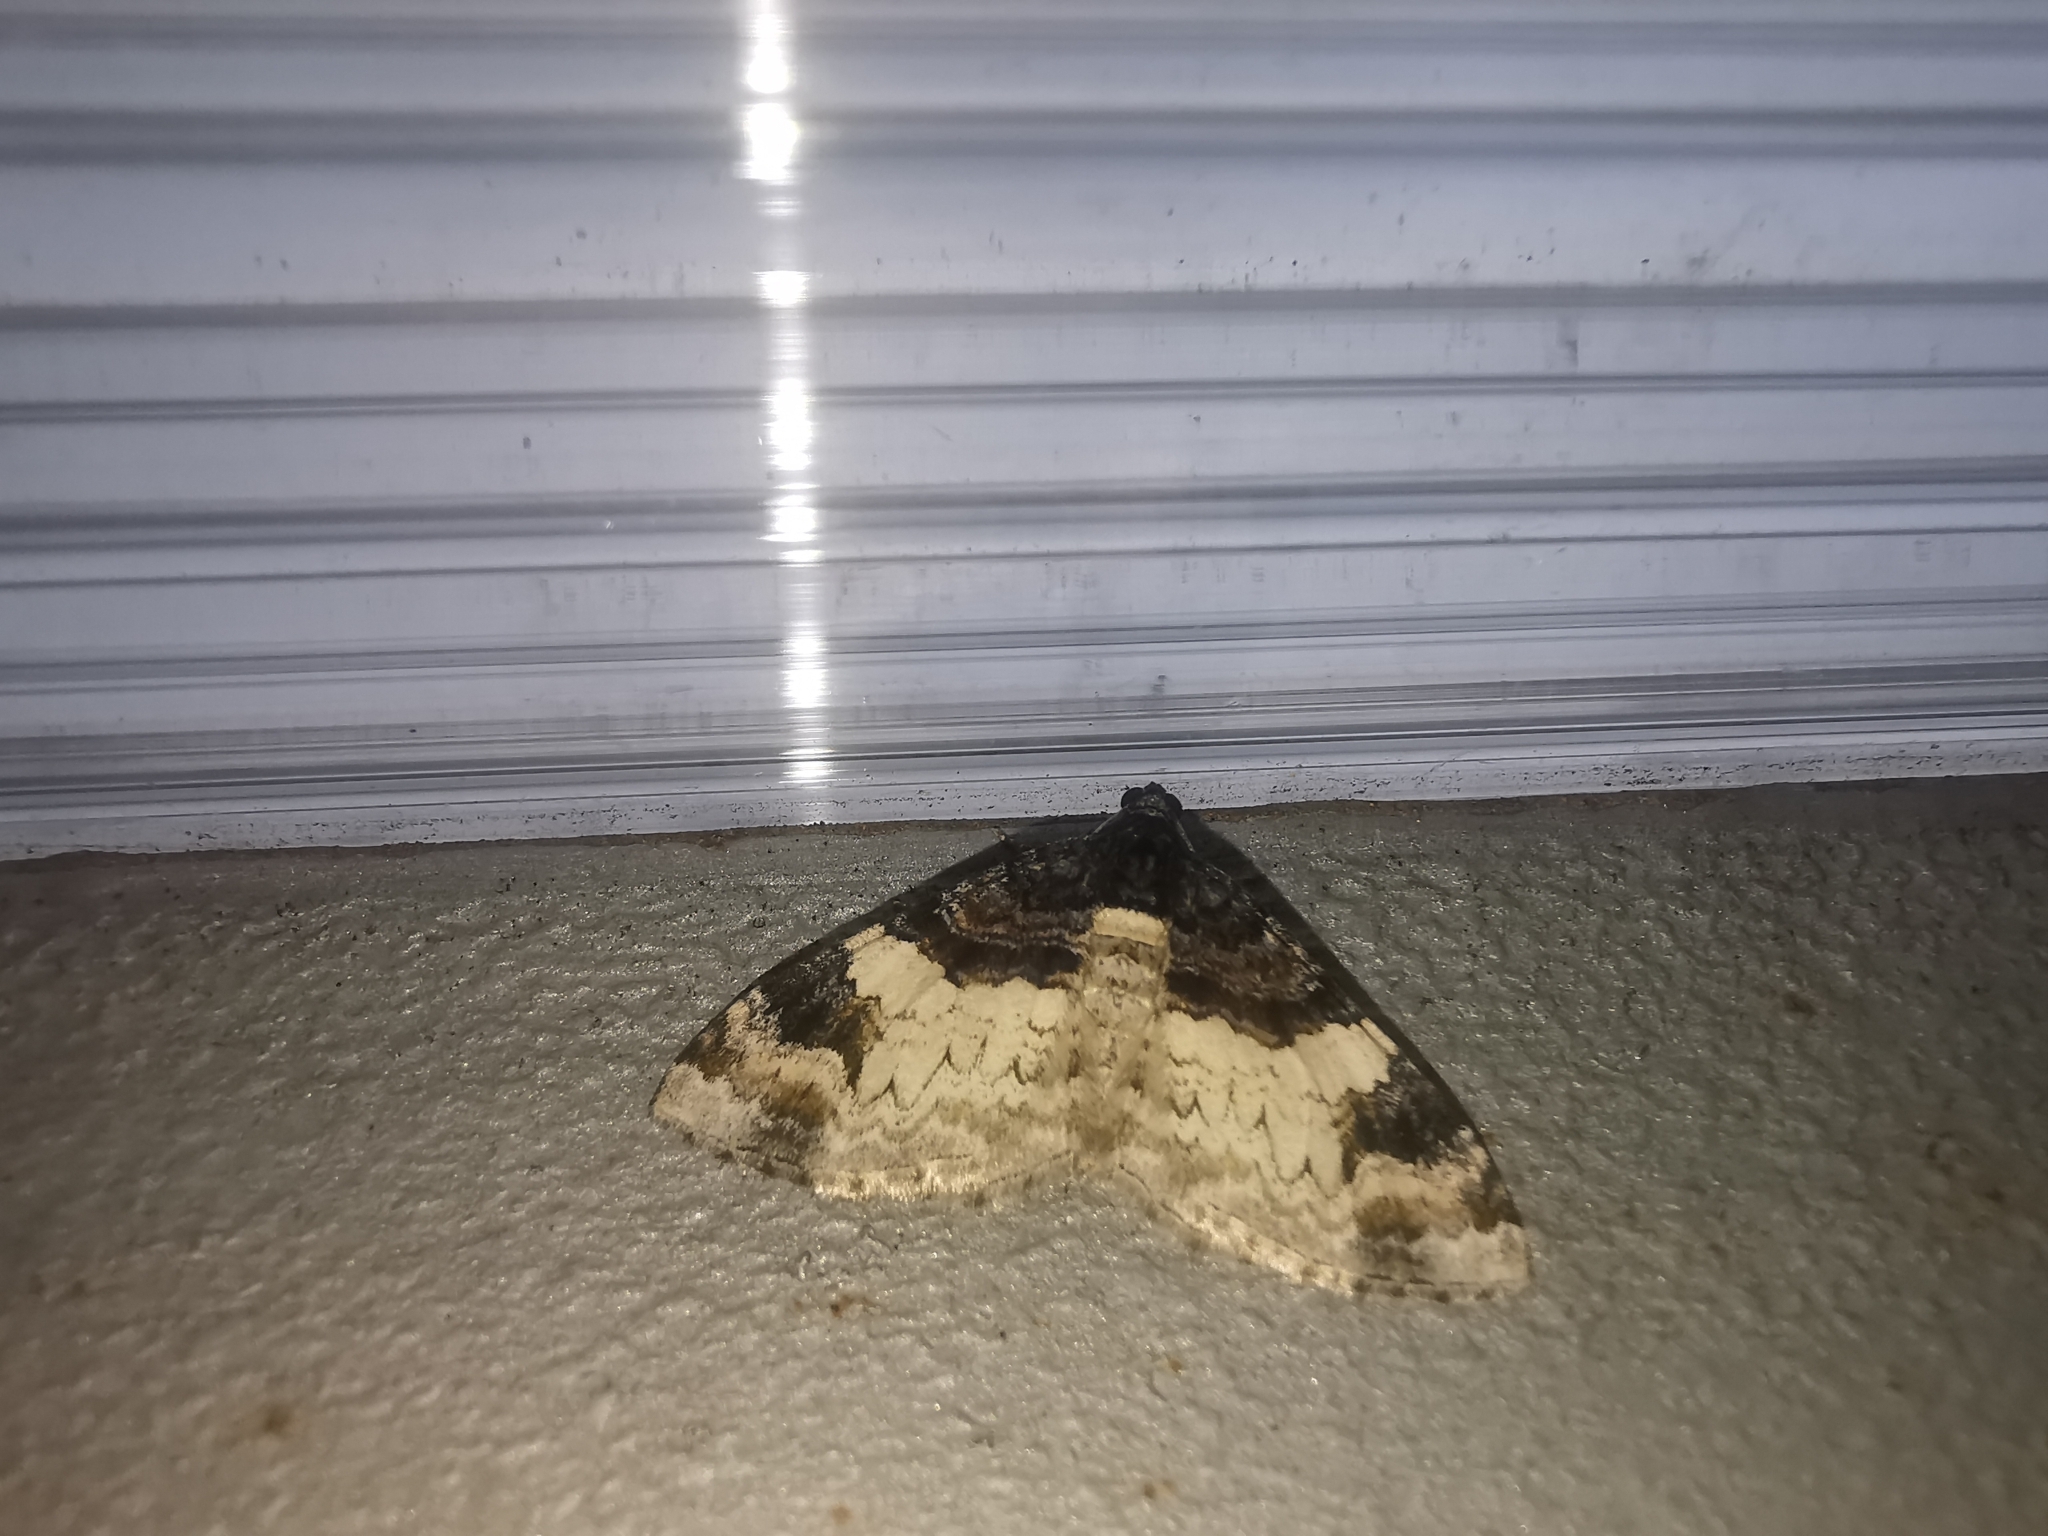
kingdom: Animalia
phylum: Arthropoda
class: Insecta
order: Lepidoptera
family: Geometridae
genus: Catarhoe
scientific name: Catarhoe cuculata
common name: Royal mantle
